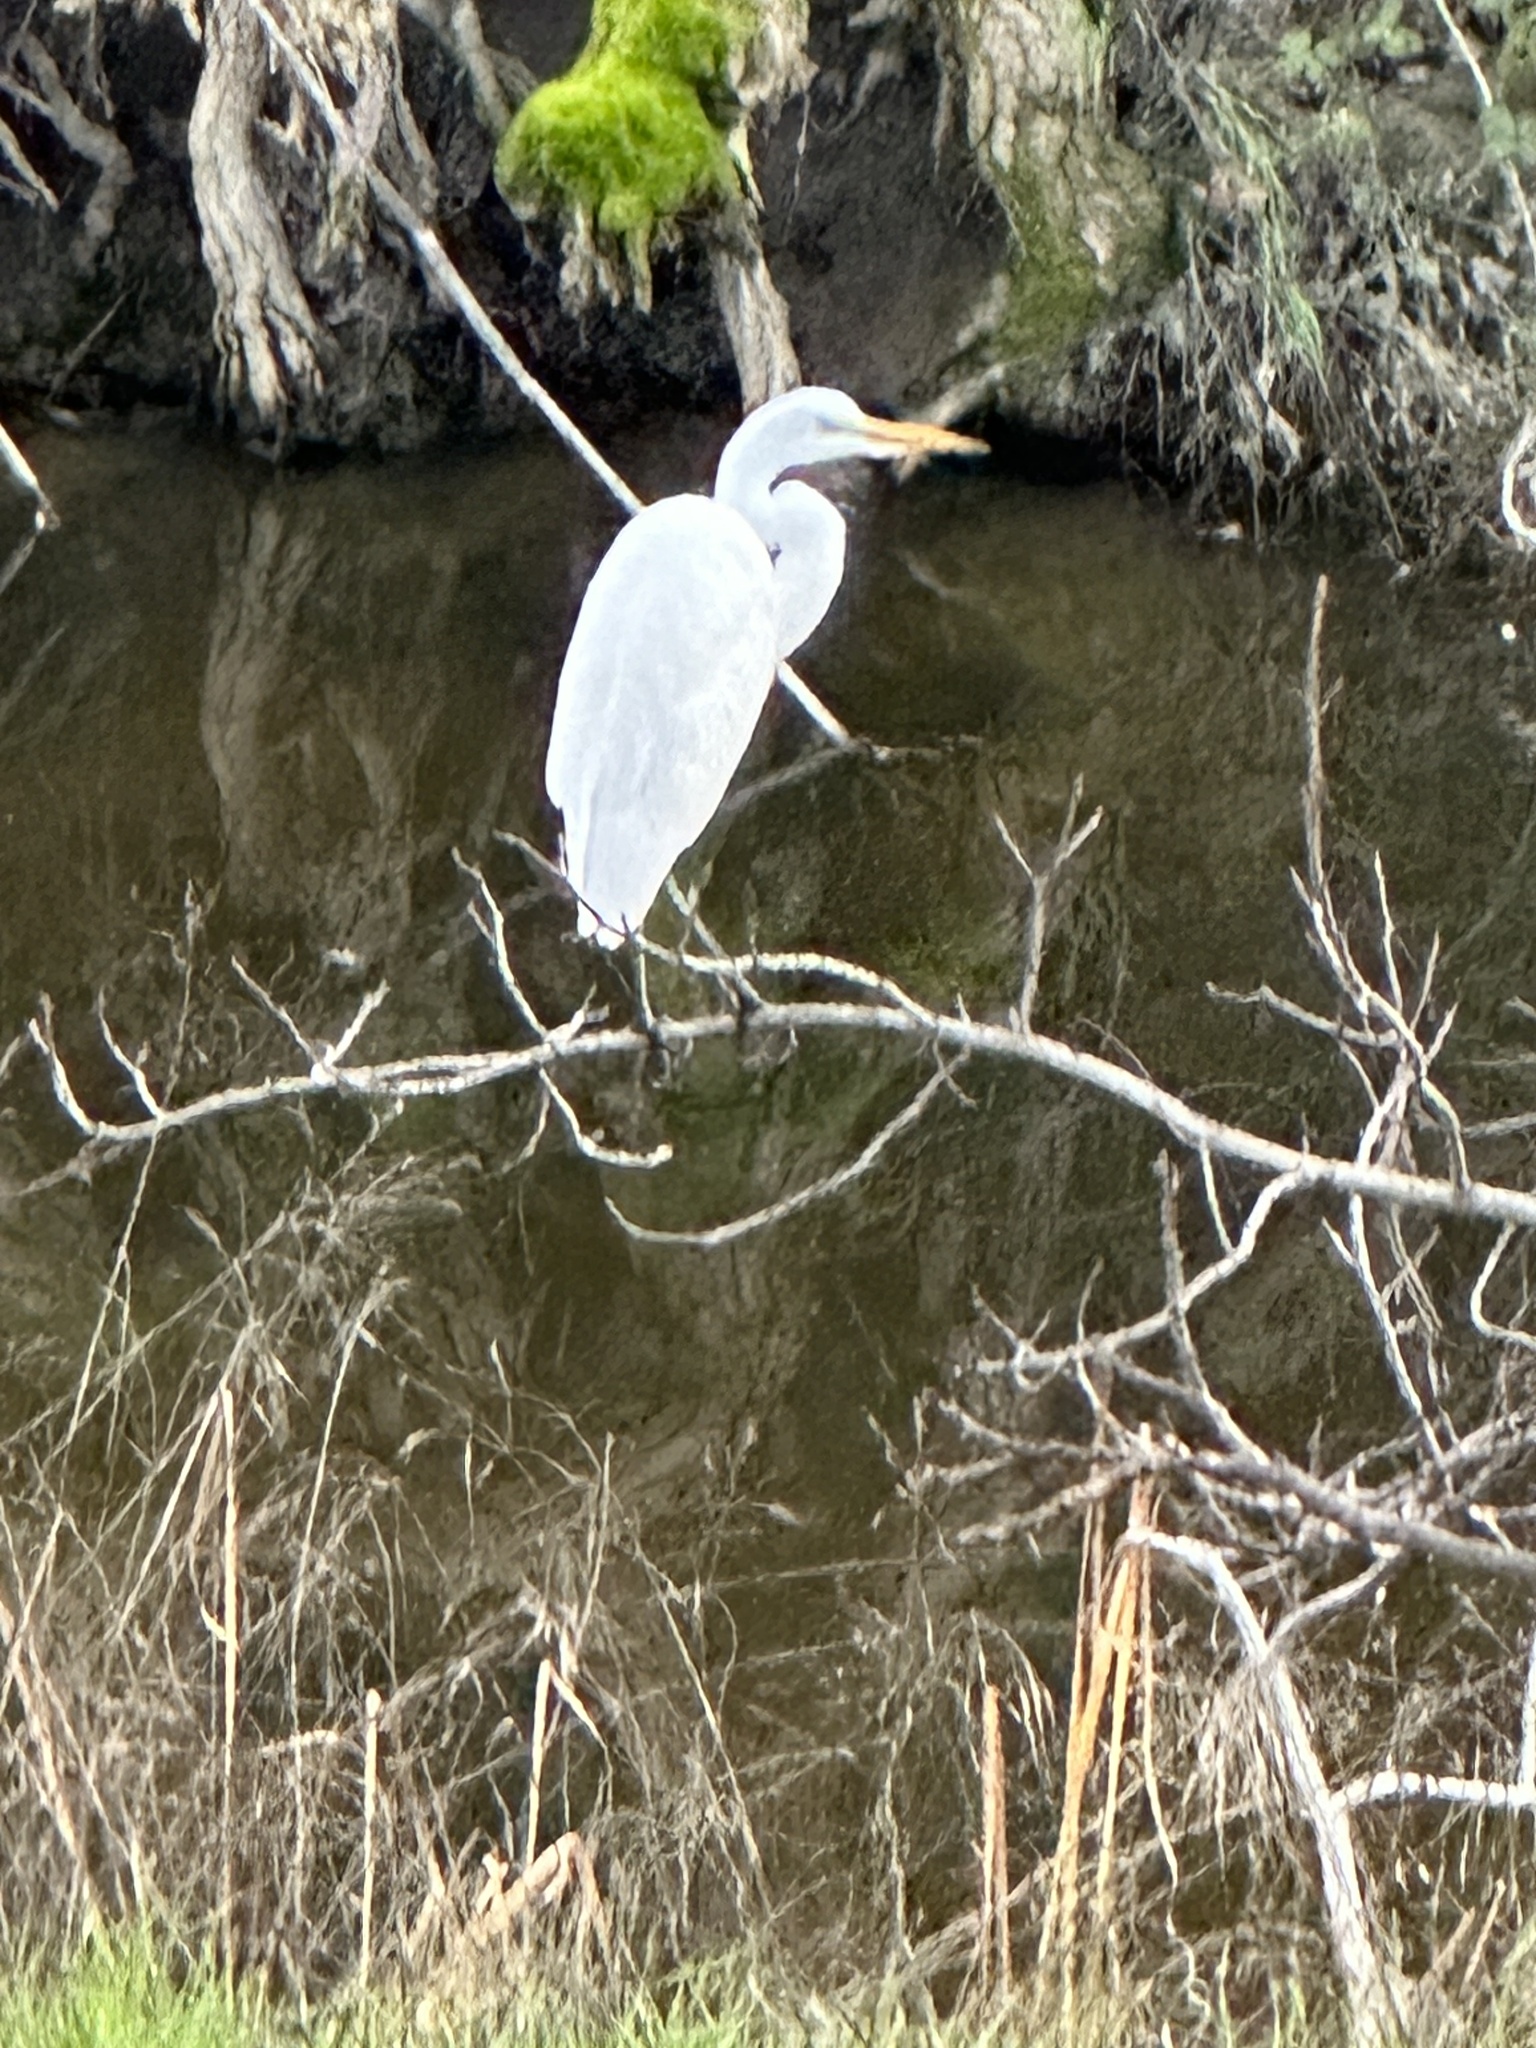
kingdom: Animalia
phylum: Chordata
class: Aves
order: Pelecaniformes
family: Ardeidae
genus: Ardea
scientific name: Ardea alba
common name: Great egret
